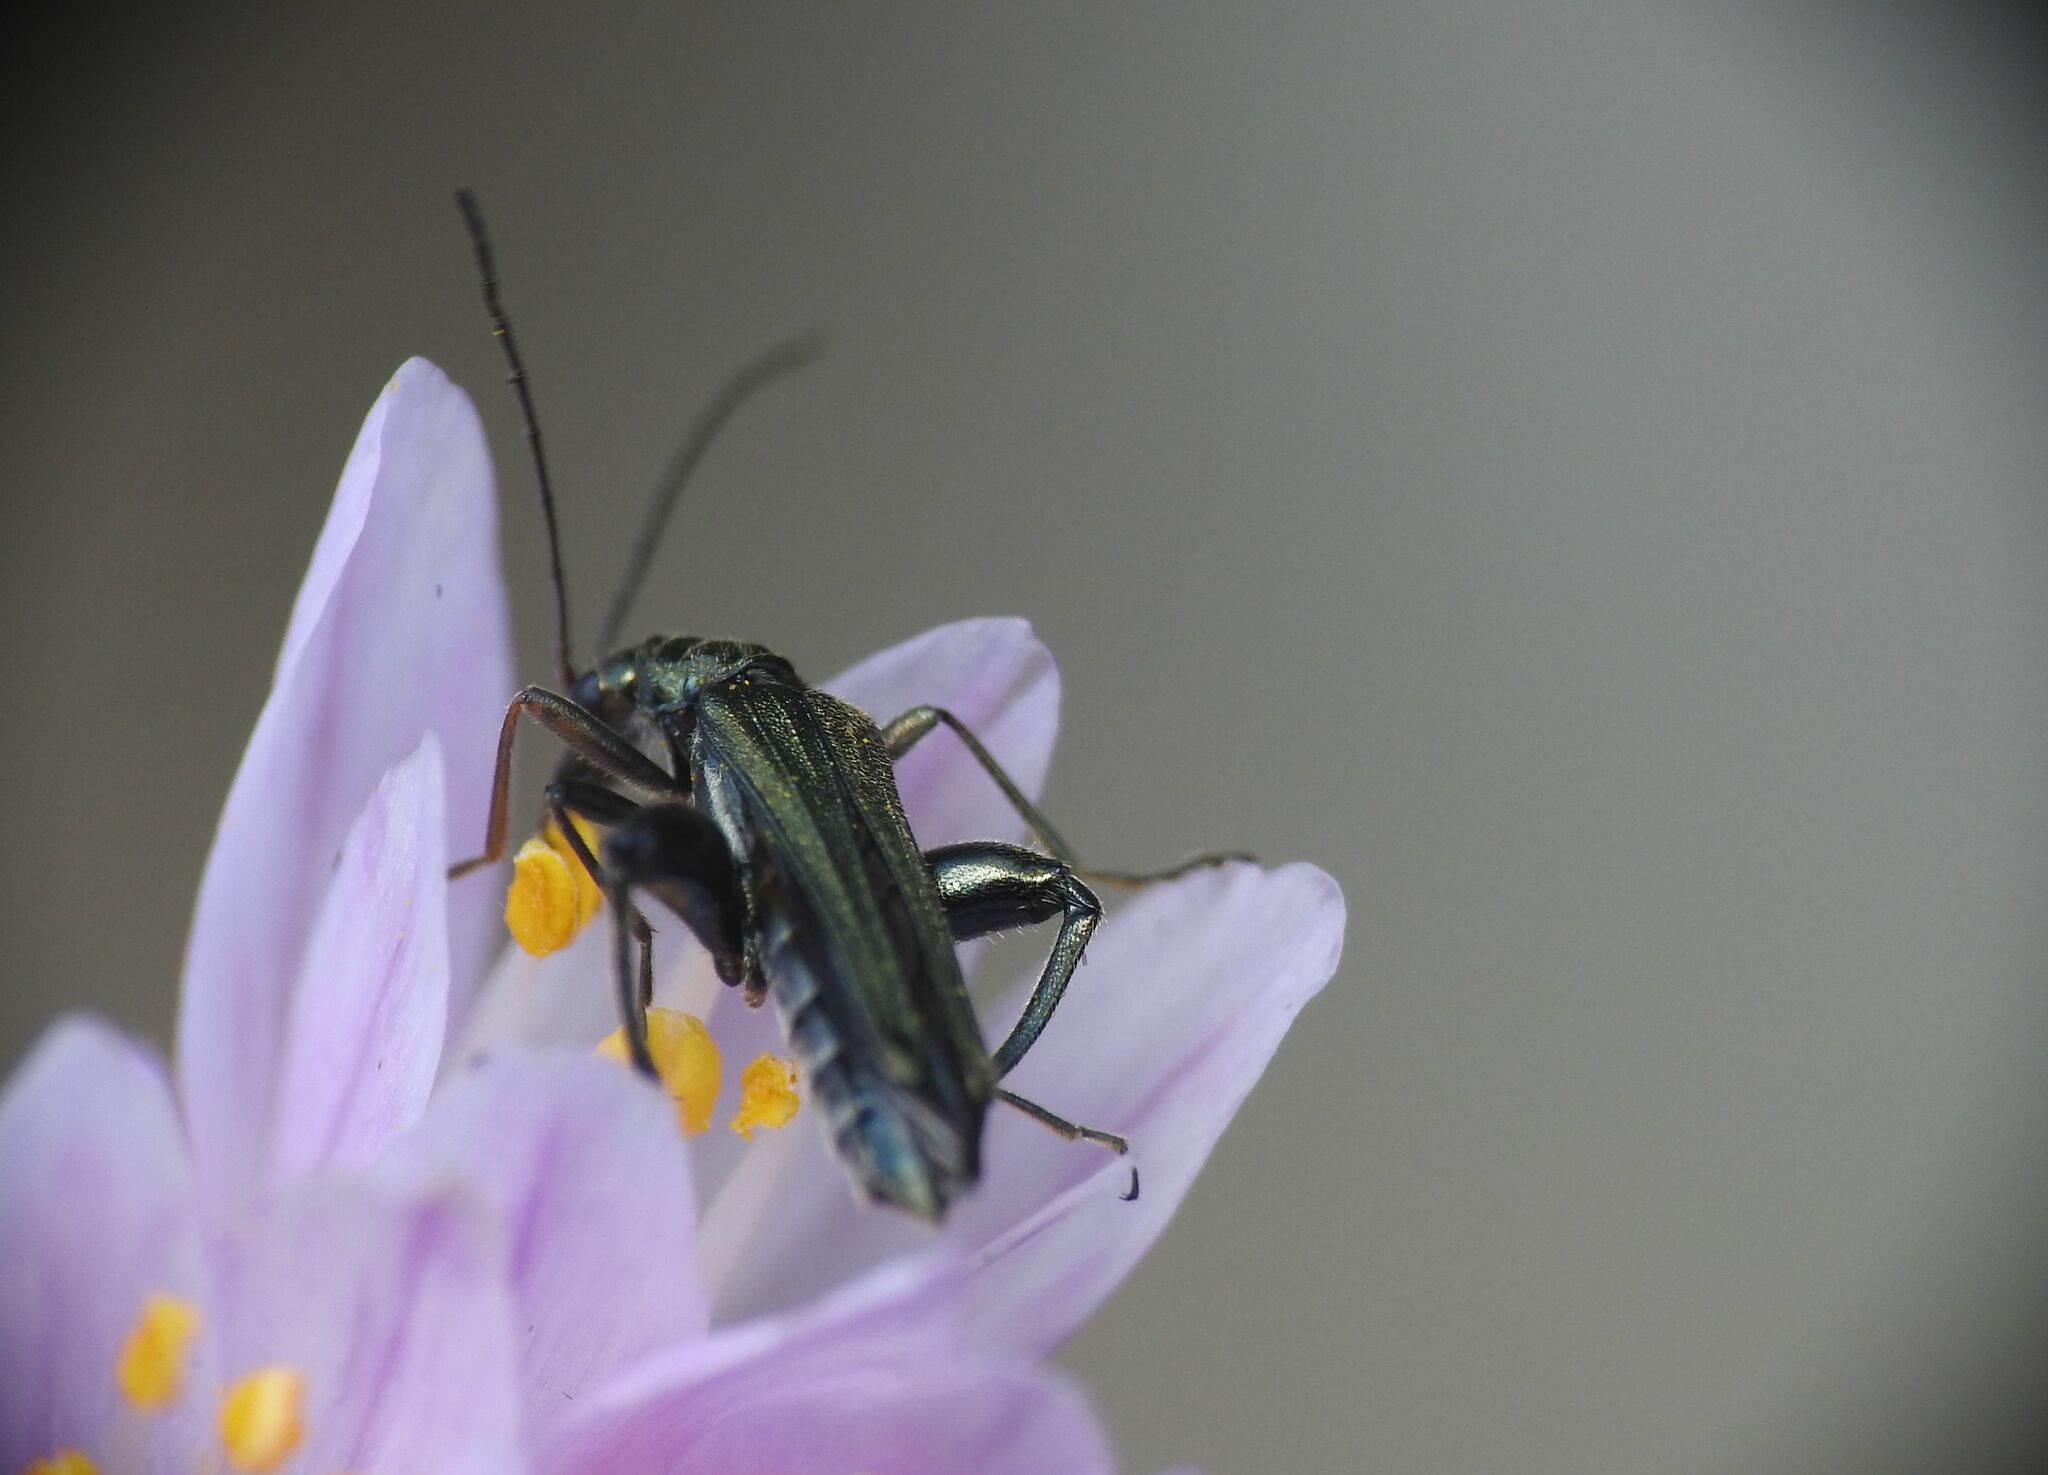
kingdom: Animalia
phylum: Arthropoda
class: Insecta
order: Coleoptera
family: Oedemeridae
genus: Oedemera
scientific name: Oedemera flavipes
